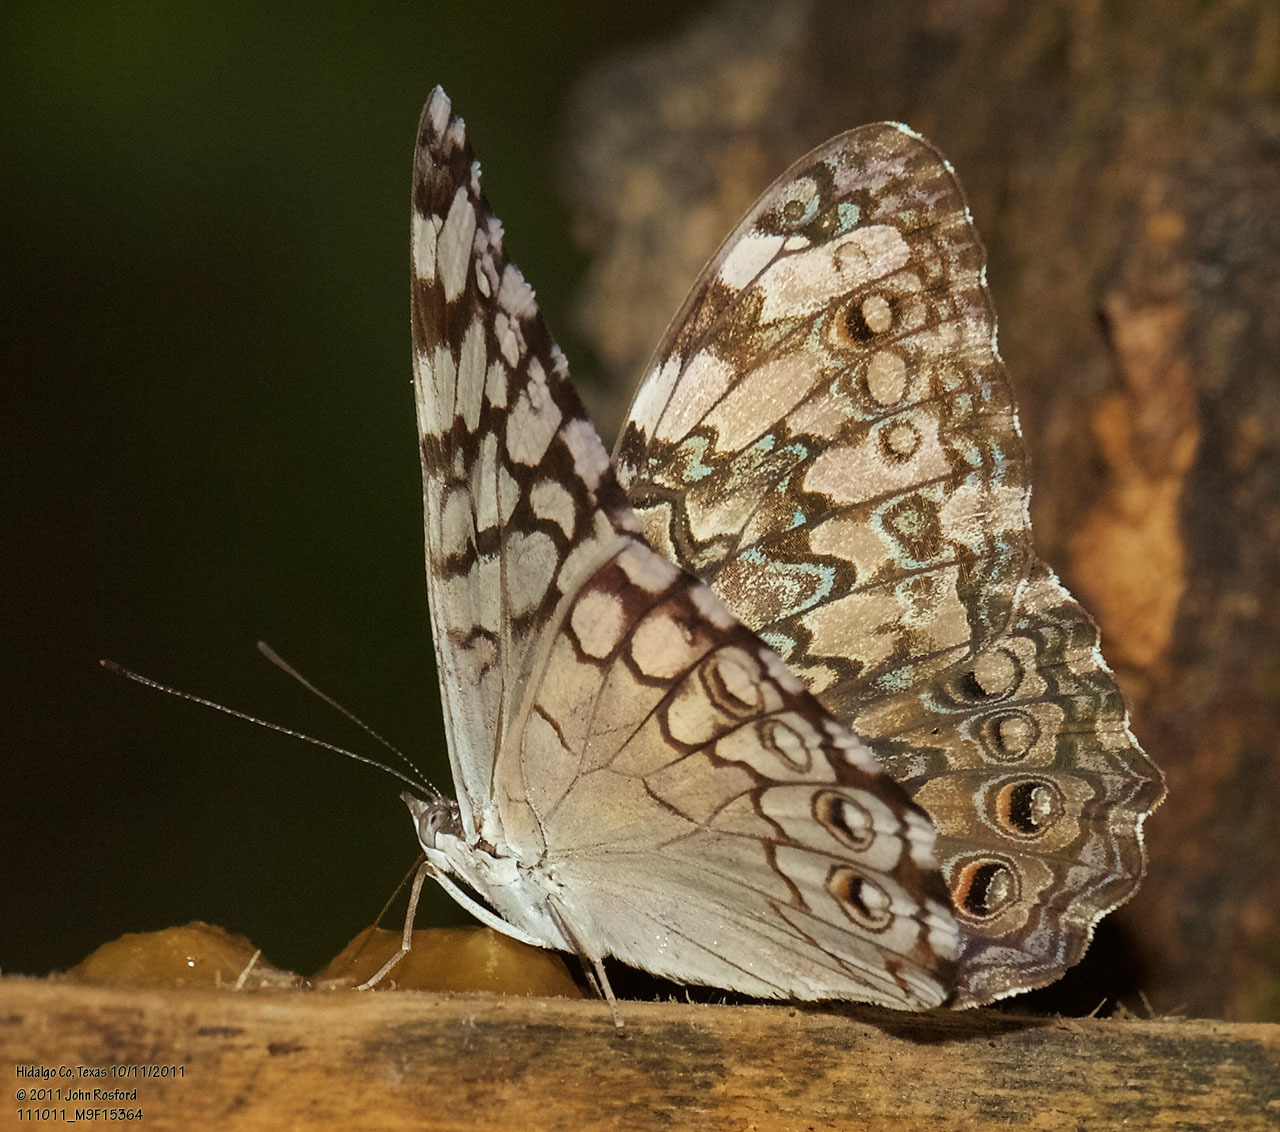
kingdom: Animalia
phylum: Arthropoda
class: Insecta
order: Lepidoptera
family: Nymphalidae
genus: Hamadryas
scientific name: Hamadryas februa
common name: Gray cracker
